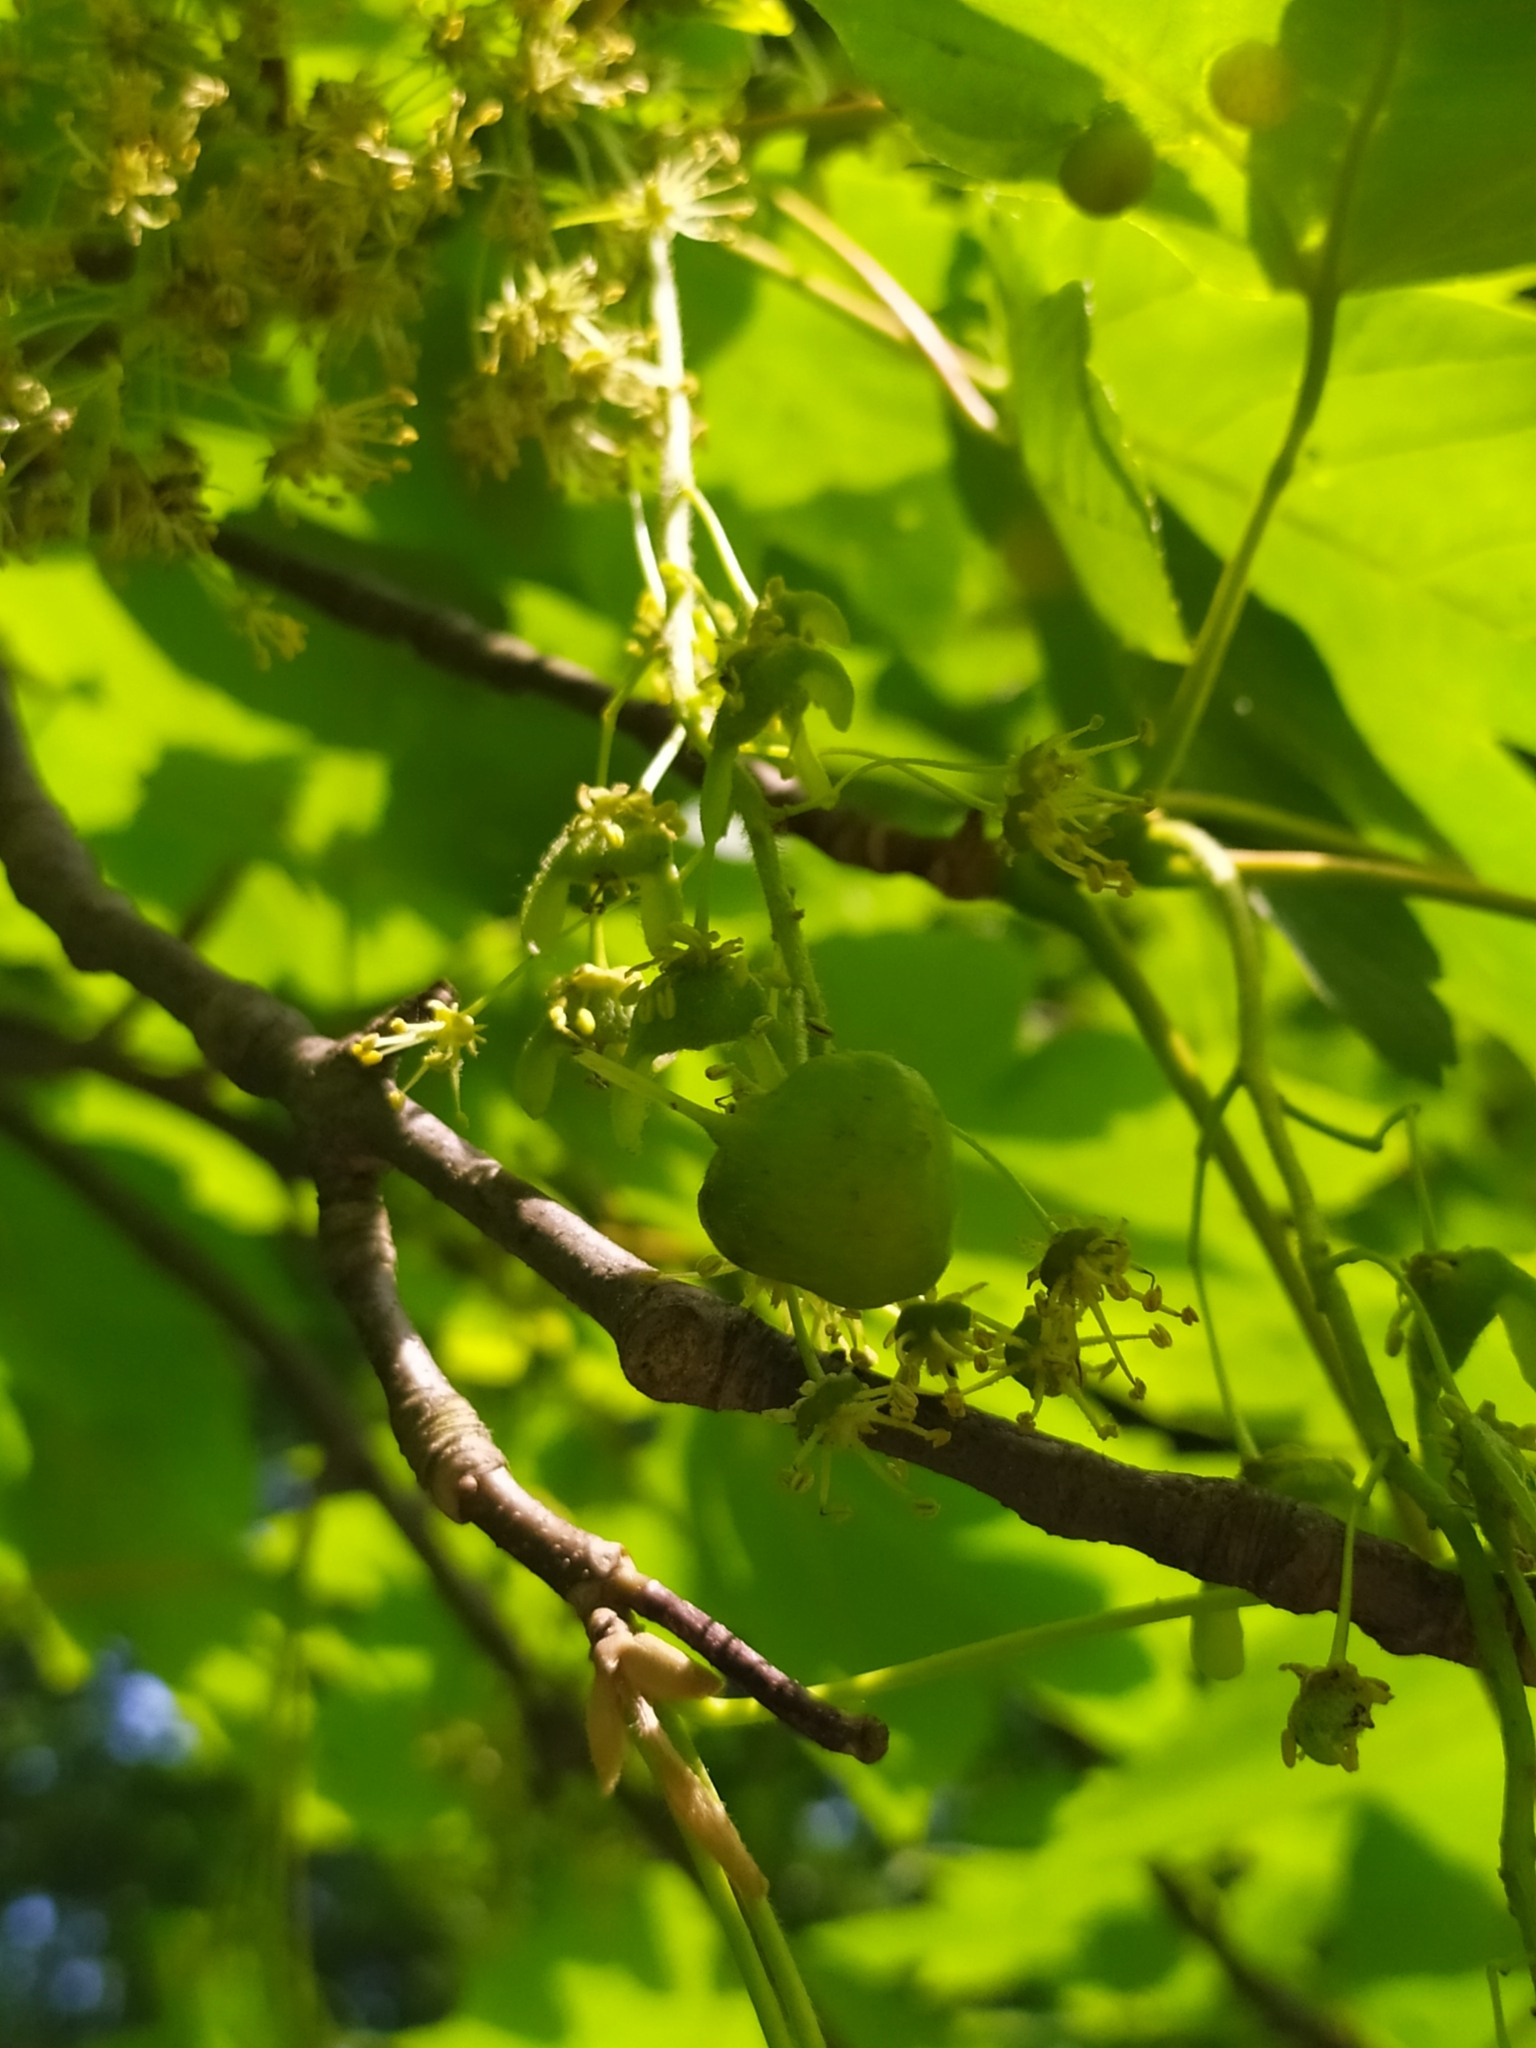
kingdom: Animalia
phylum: Arthropoda
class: Insecta
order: Hymenoptera
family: Cynipidae
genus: Pediaspis
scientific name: Pediaspis aceris
